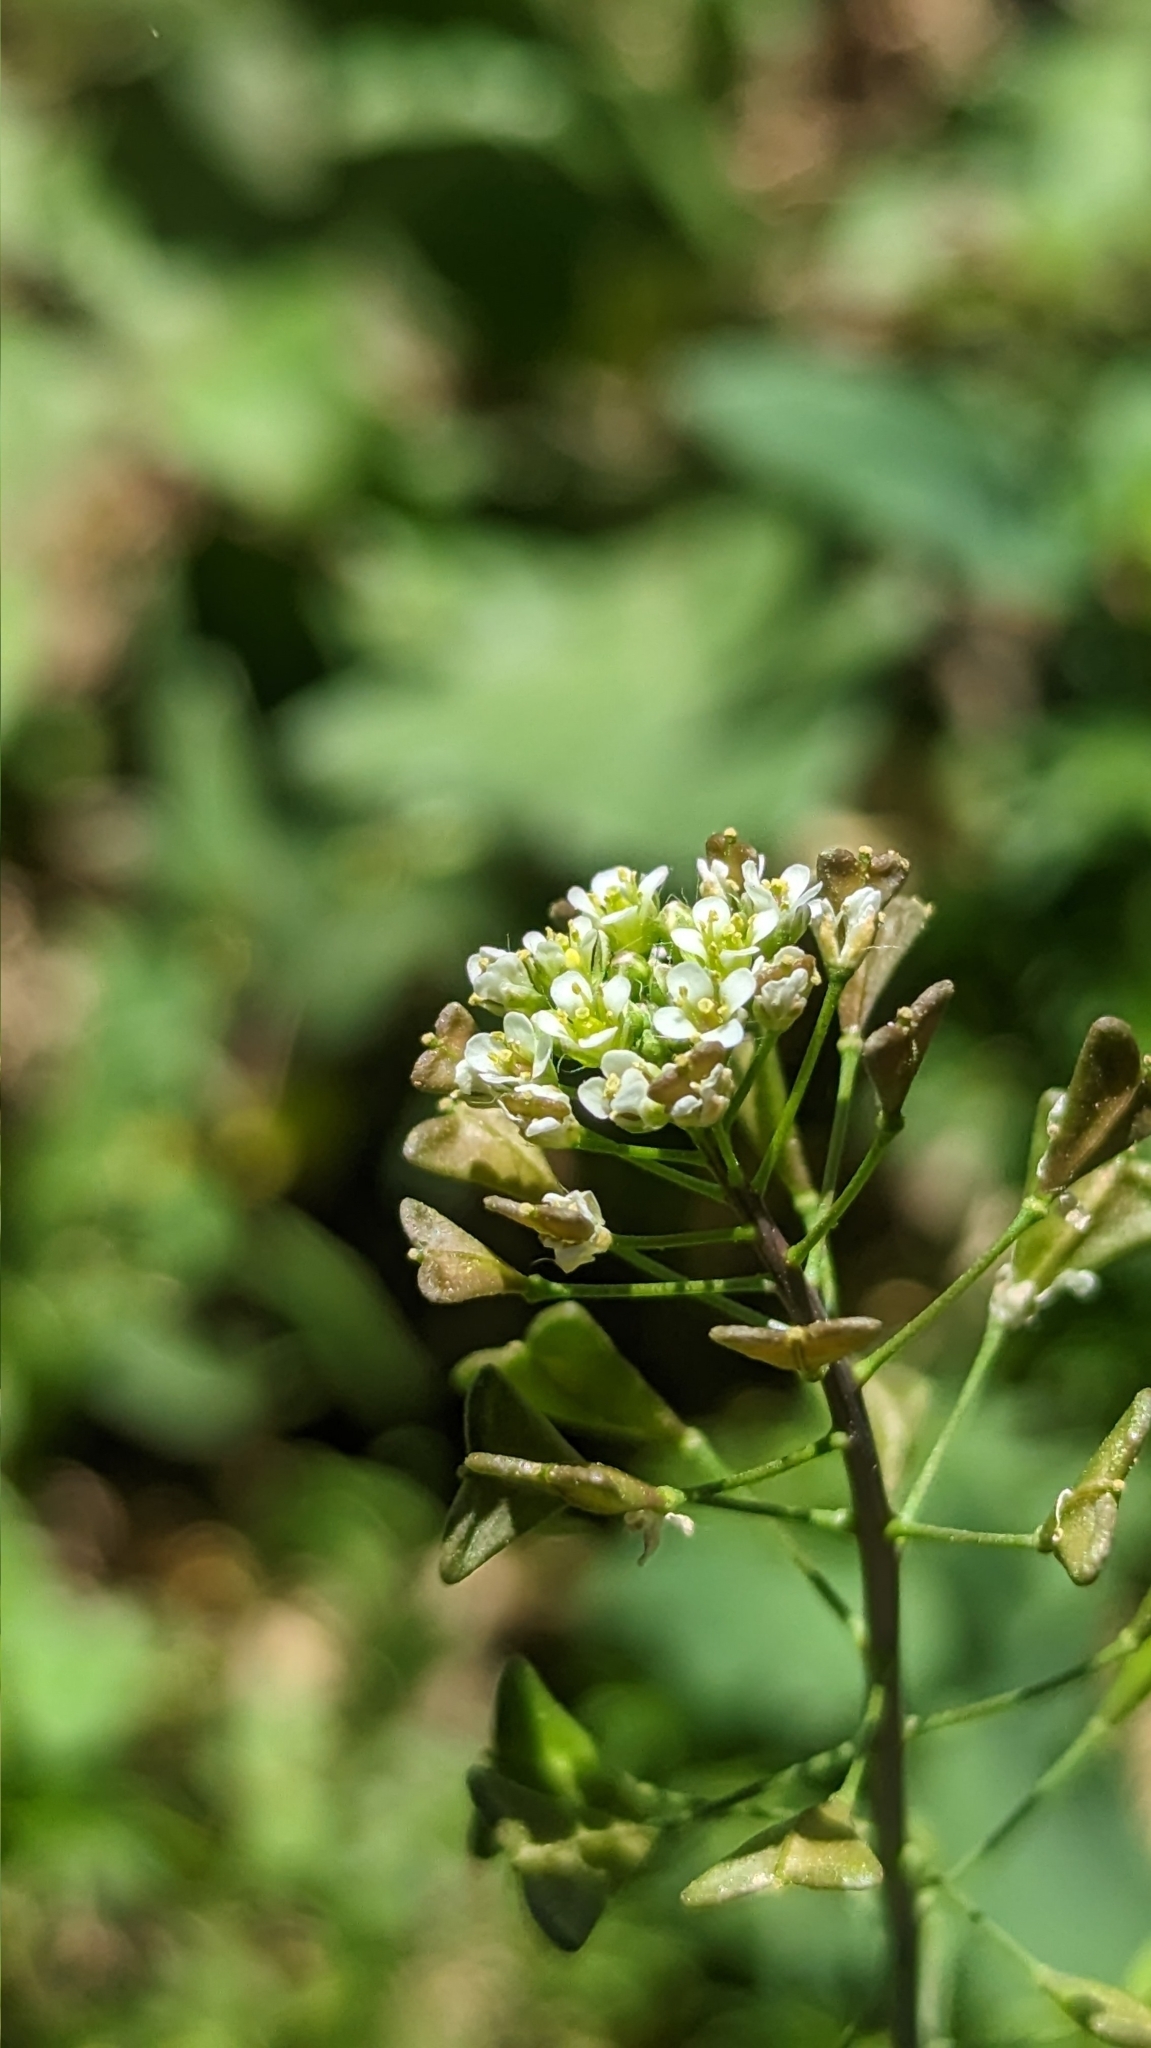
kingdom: Plantae
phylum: Tracheophyta
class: Magnoliopsida
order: Brassicales
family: Brassicaceae
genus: Capsella
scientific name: Capsella bursa-pastoris
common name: Shepherd's purse
